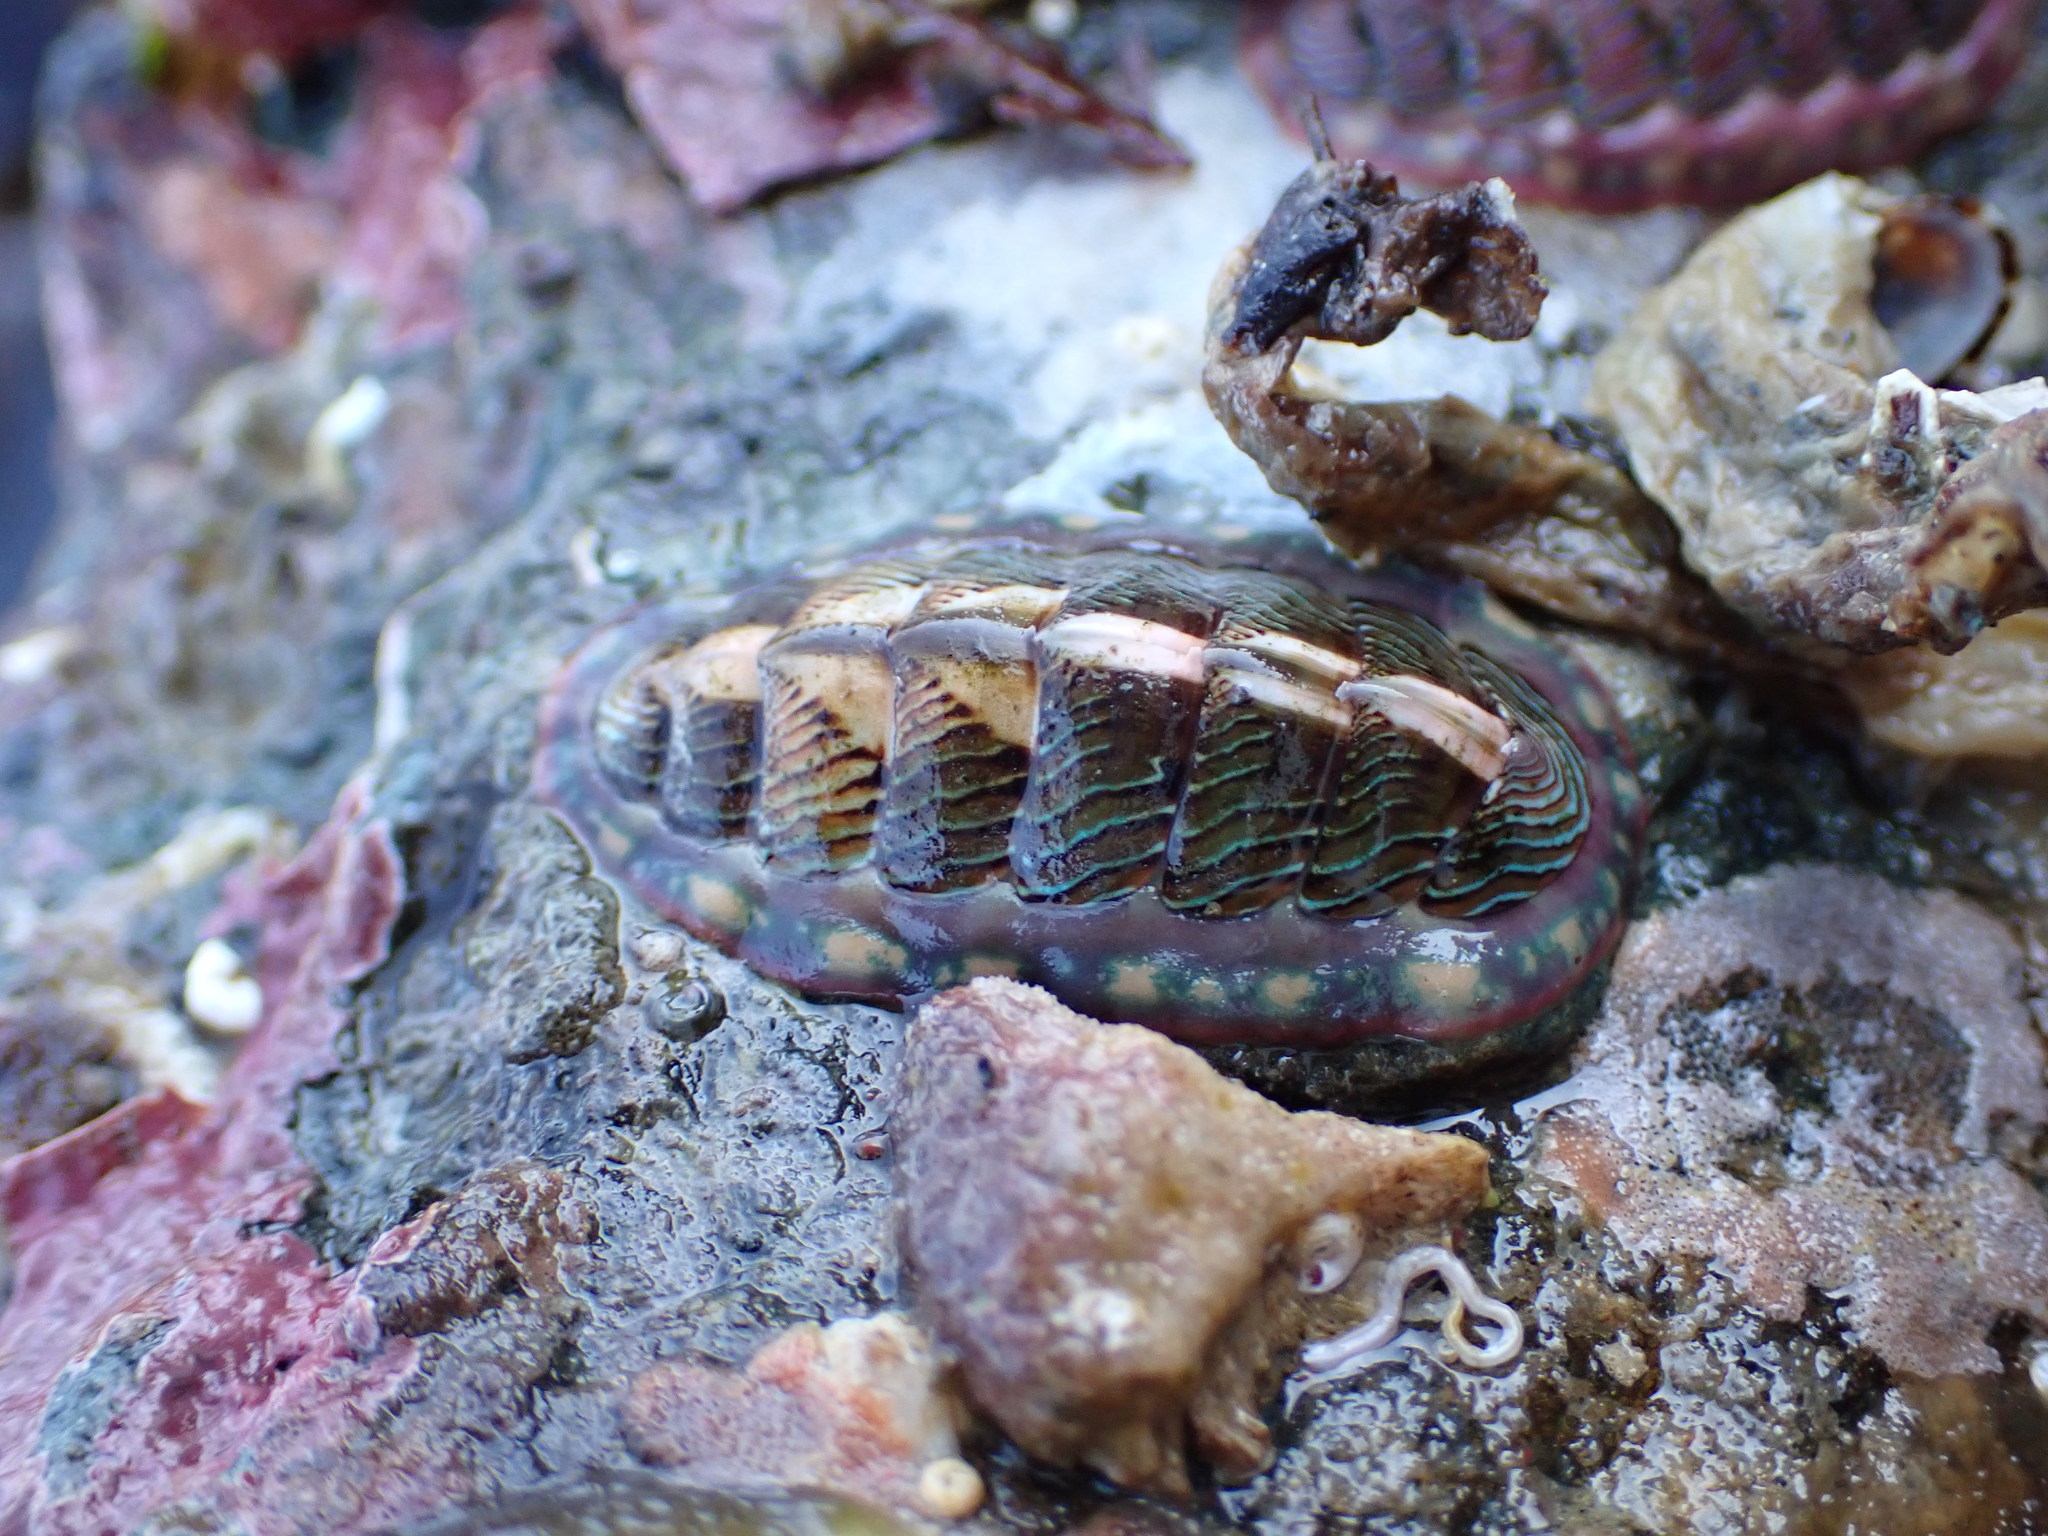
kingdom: Animalia
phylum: Mollusca
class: Polyplacophora
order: Chitonida
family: Tonicellidae
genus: Tonicella
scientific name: Tonicella lineata
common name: Lined chiton
